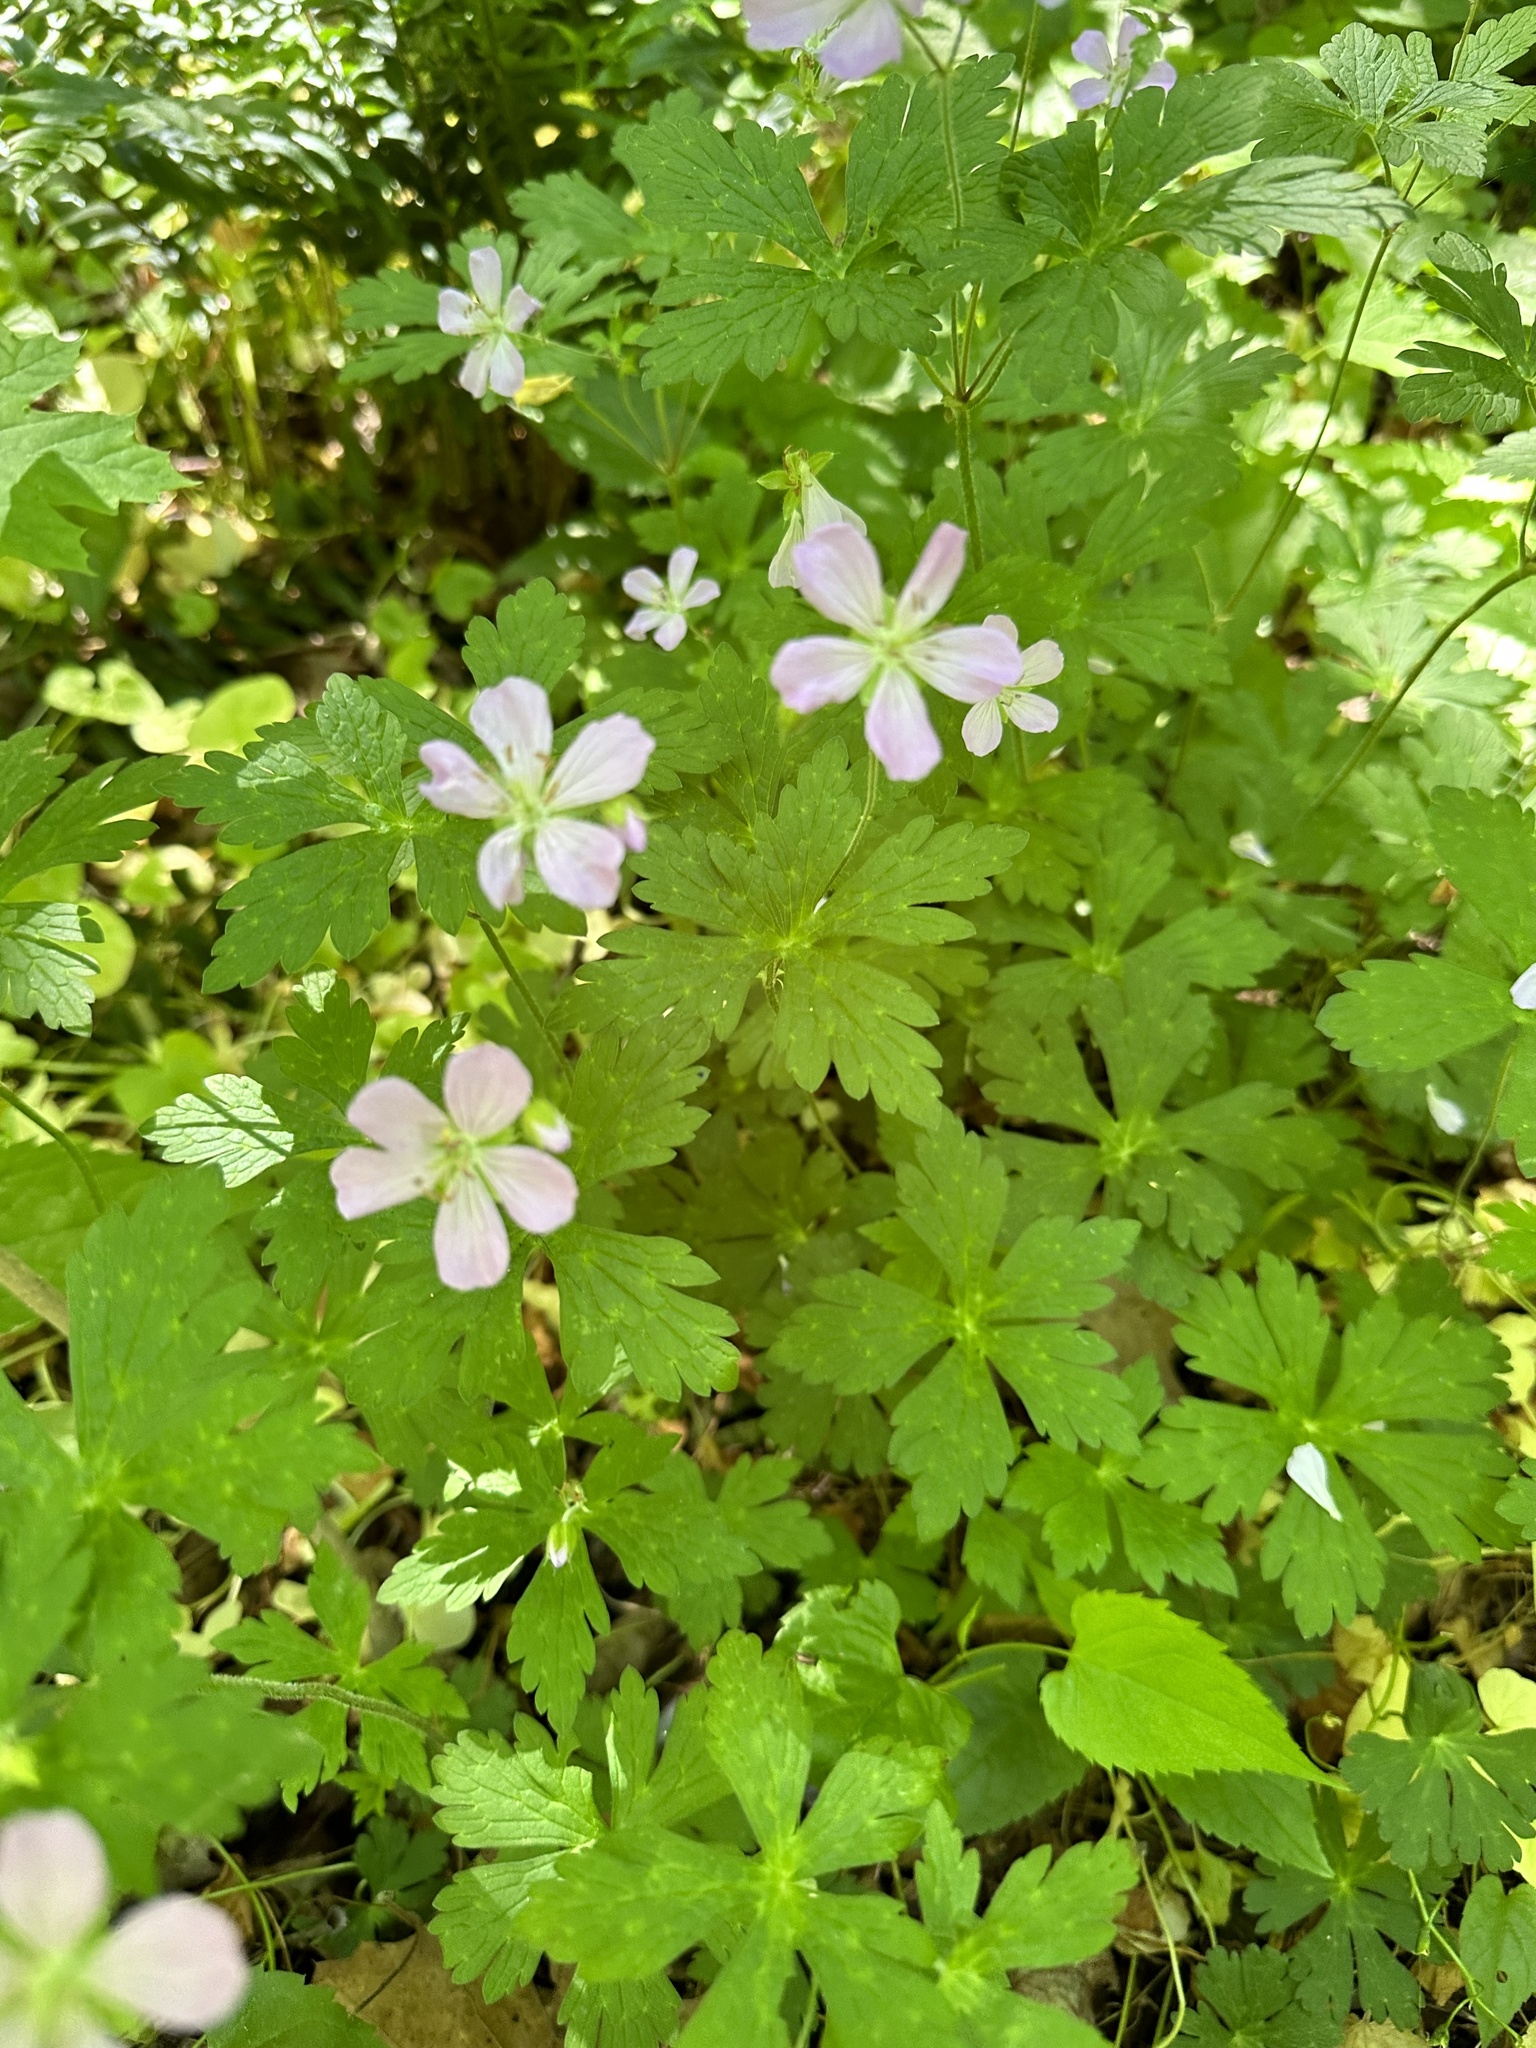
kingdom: Plantae
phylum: Tracheophyta
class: Magnoliopsida
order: Geraniales
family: Geraniaceae
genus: Geranium
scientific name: Geranium maculatum
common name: Spotted geranium
